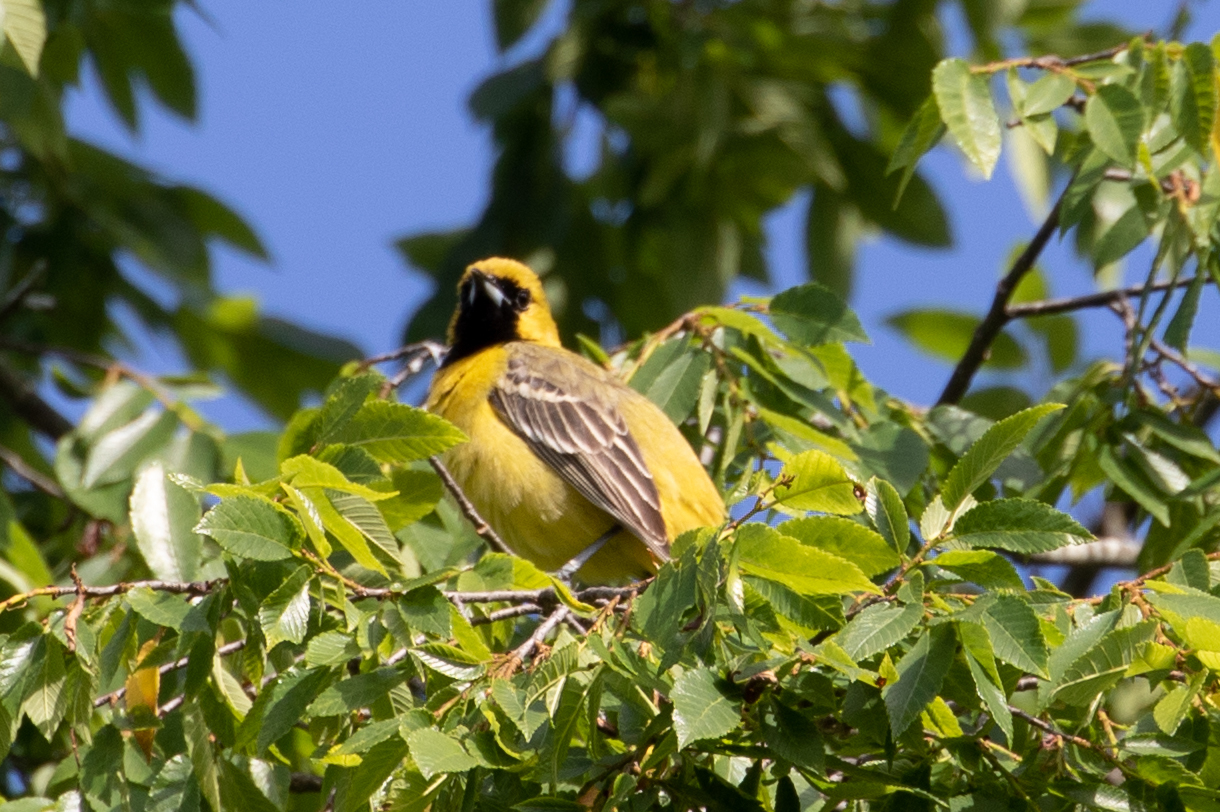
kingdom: Animalia
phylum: Chordata
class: Aves
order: Passeriformes
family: Icteridae
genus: Icterus
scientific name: Icterus spurius
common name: Orchard oriole
